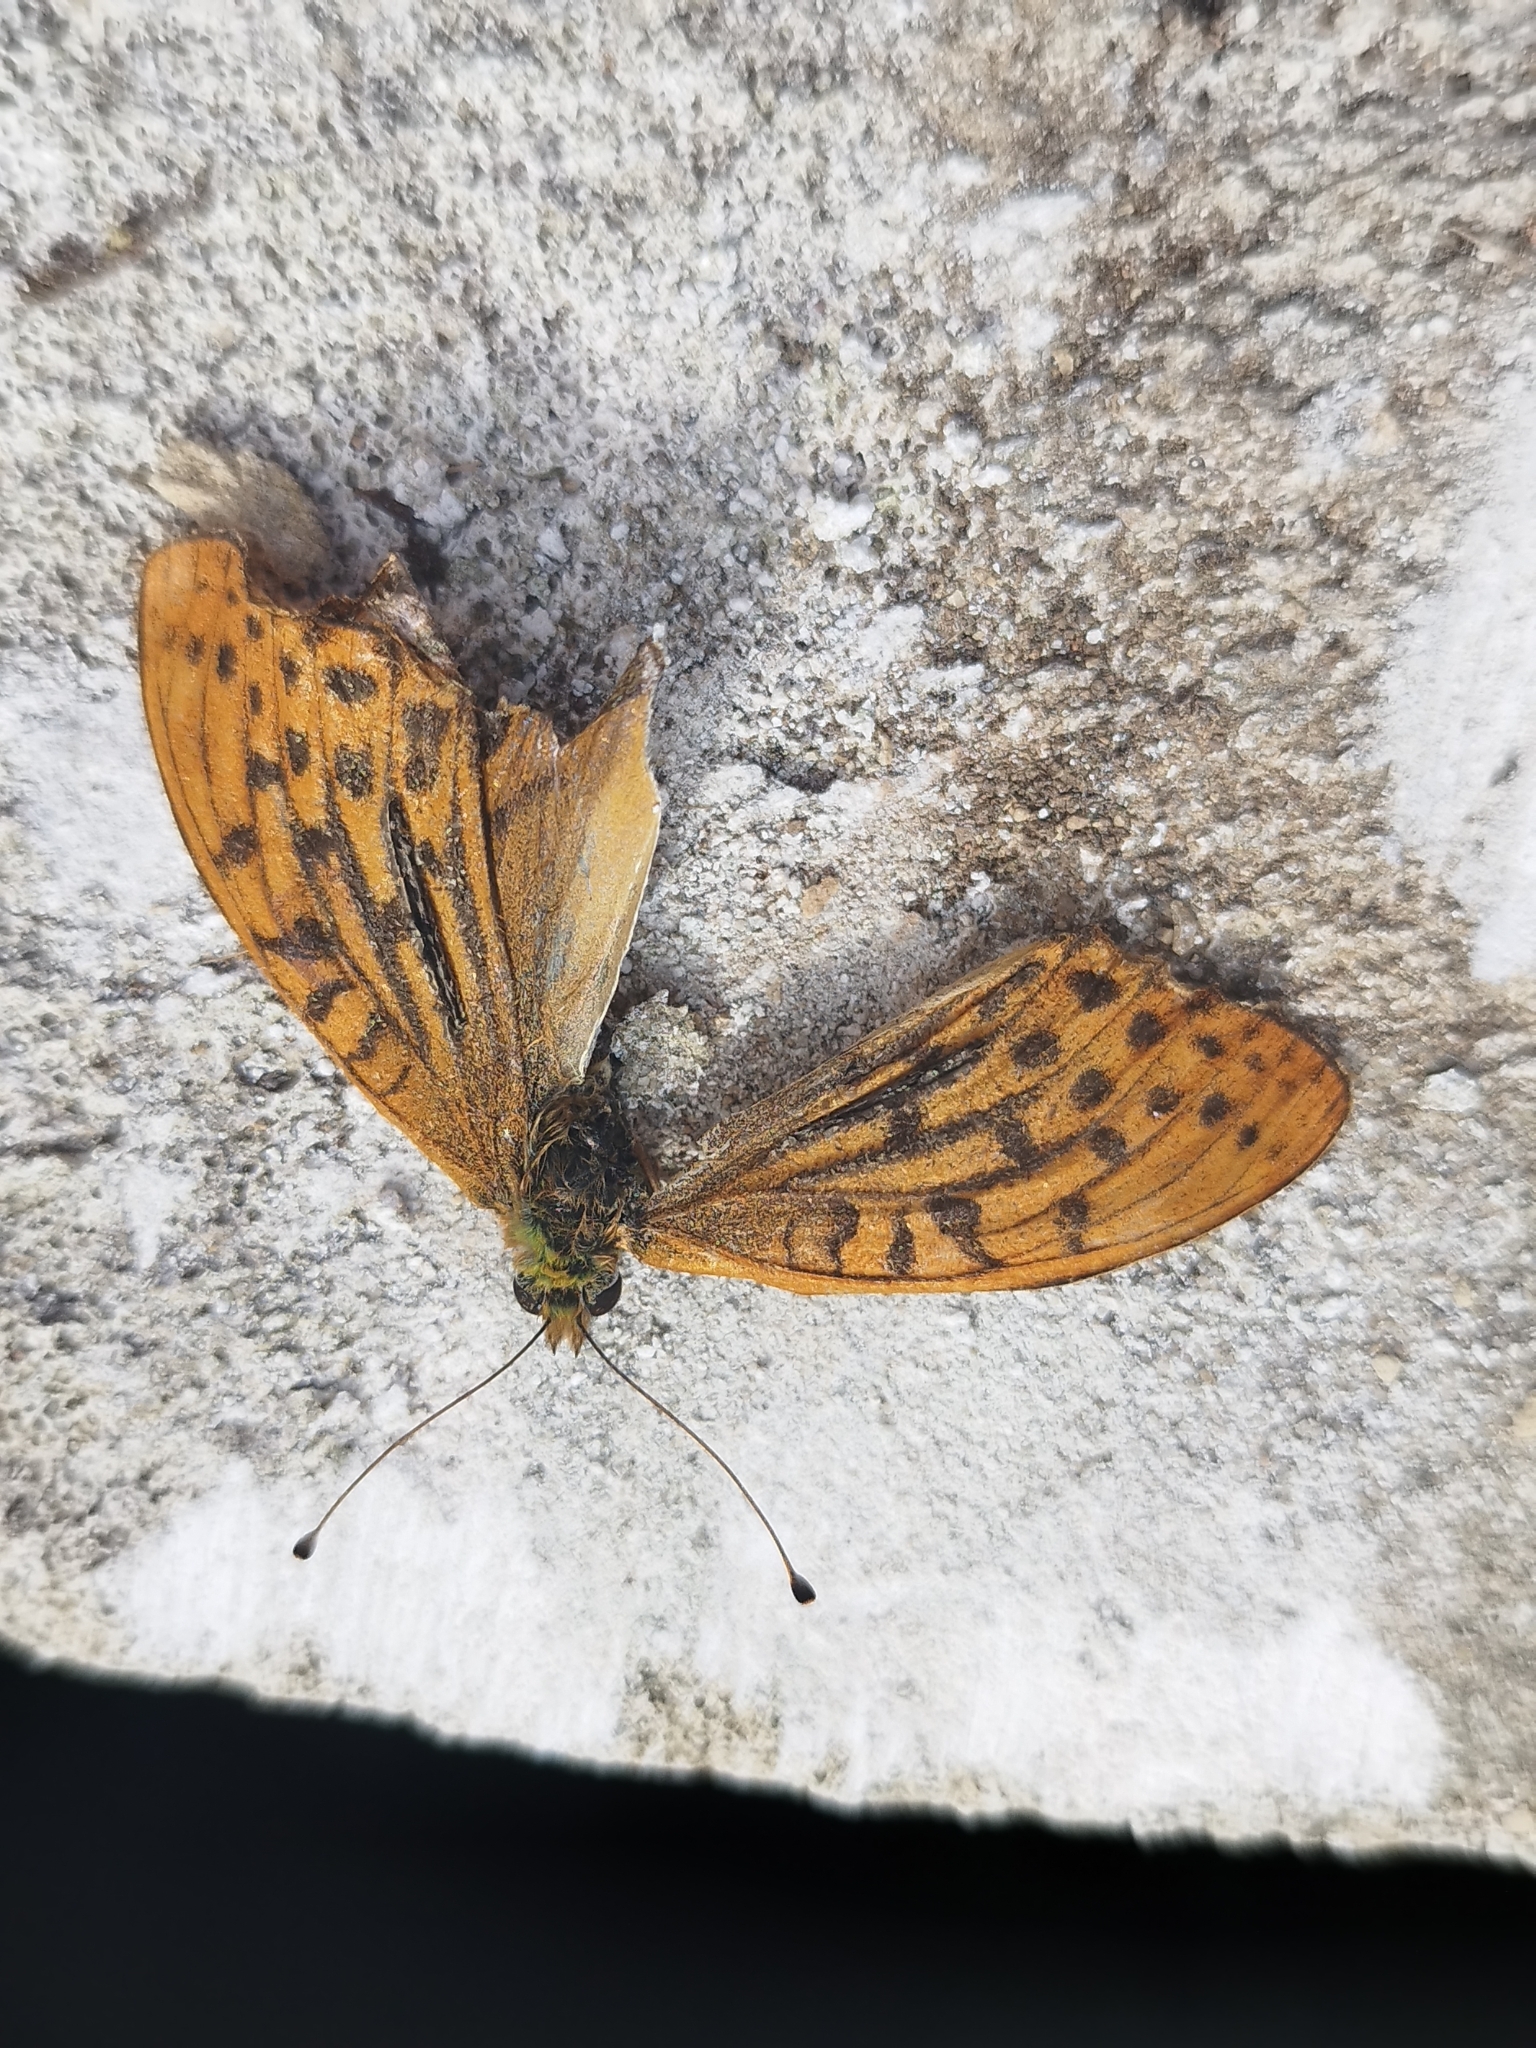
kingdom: Animalia
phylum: Arthropoda
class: Insecta
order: Lepidoptera
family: Nymphalidae
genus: Argynnis
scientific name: Argynnis paphia
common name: Silver-washed fritillary
